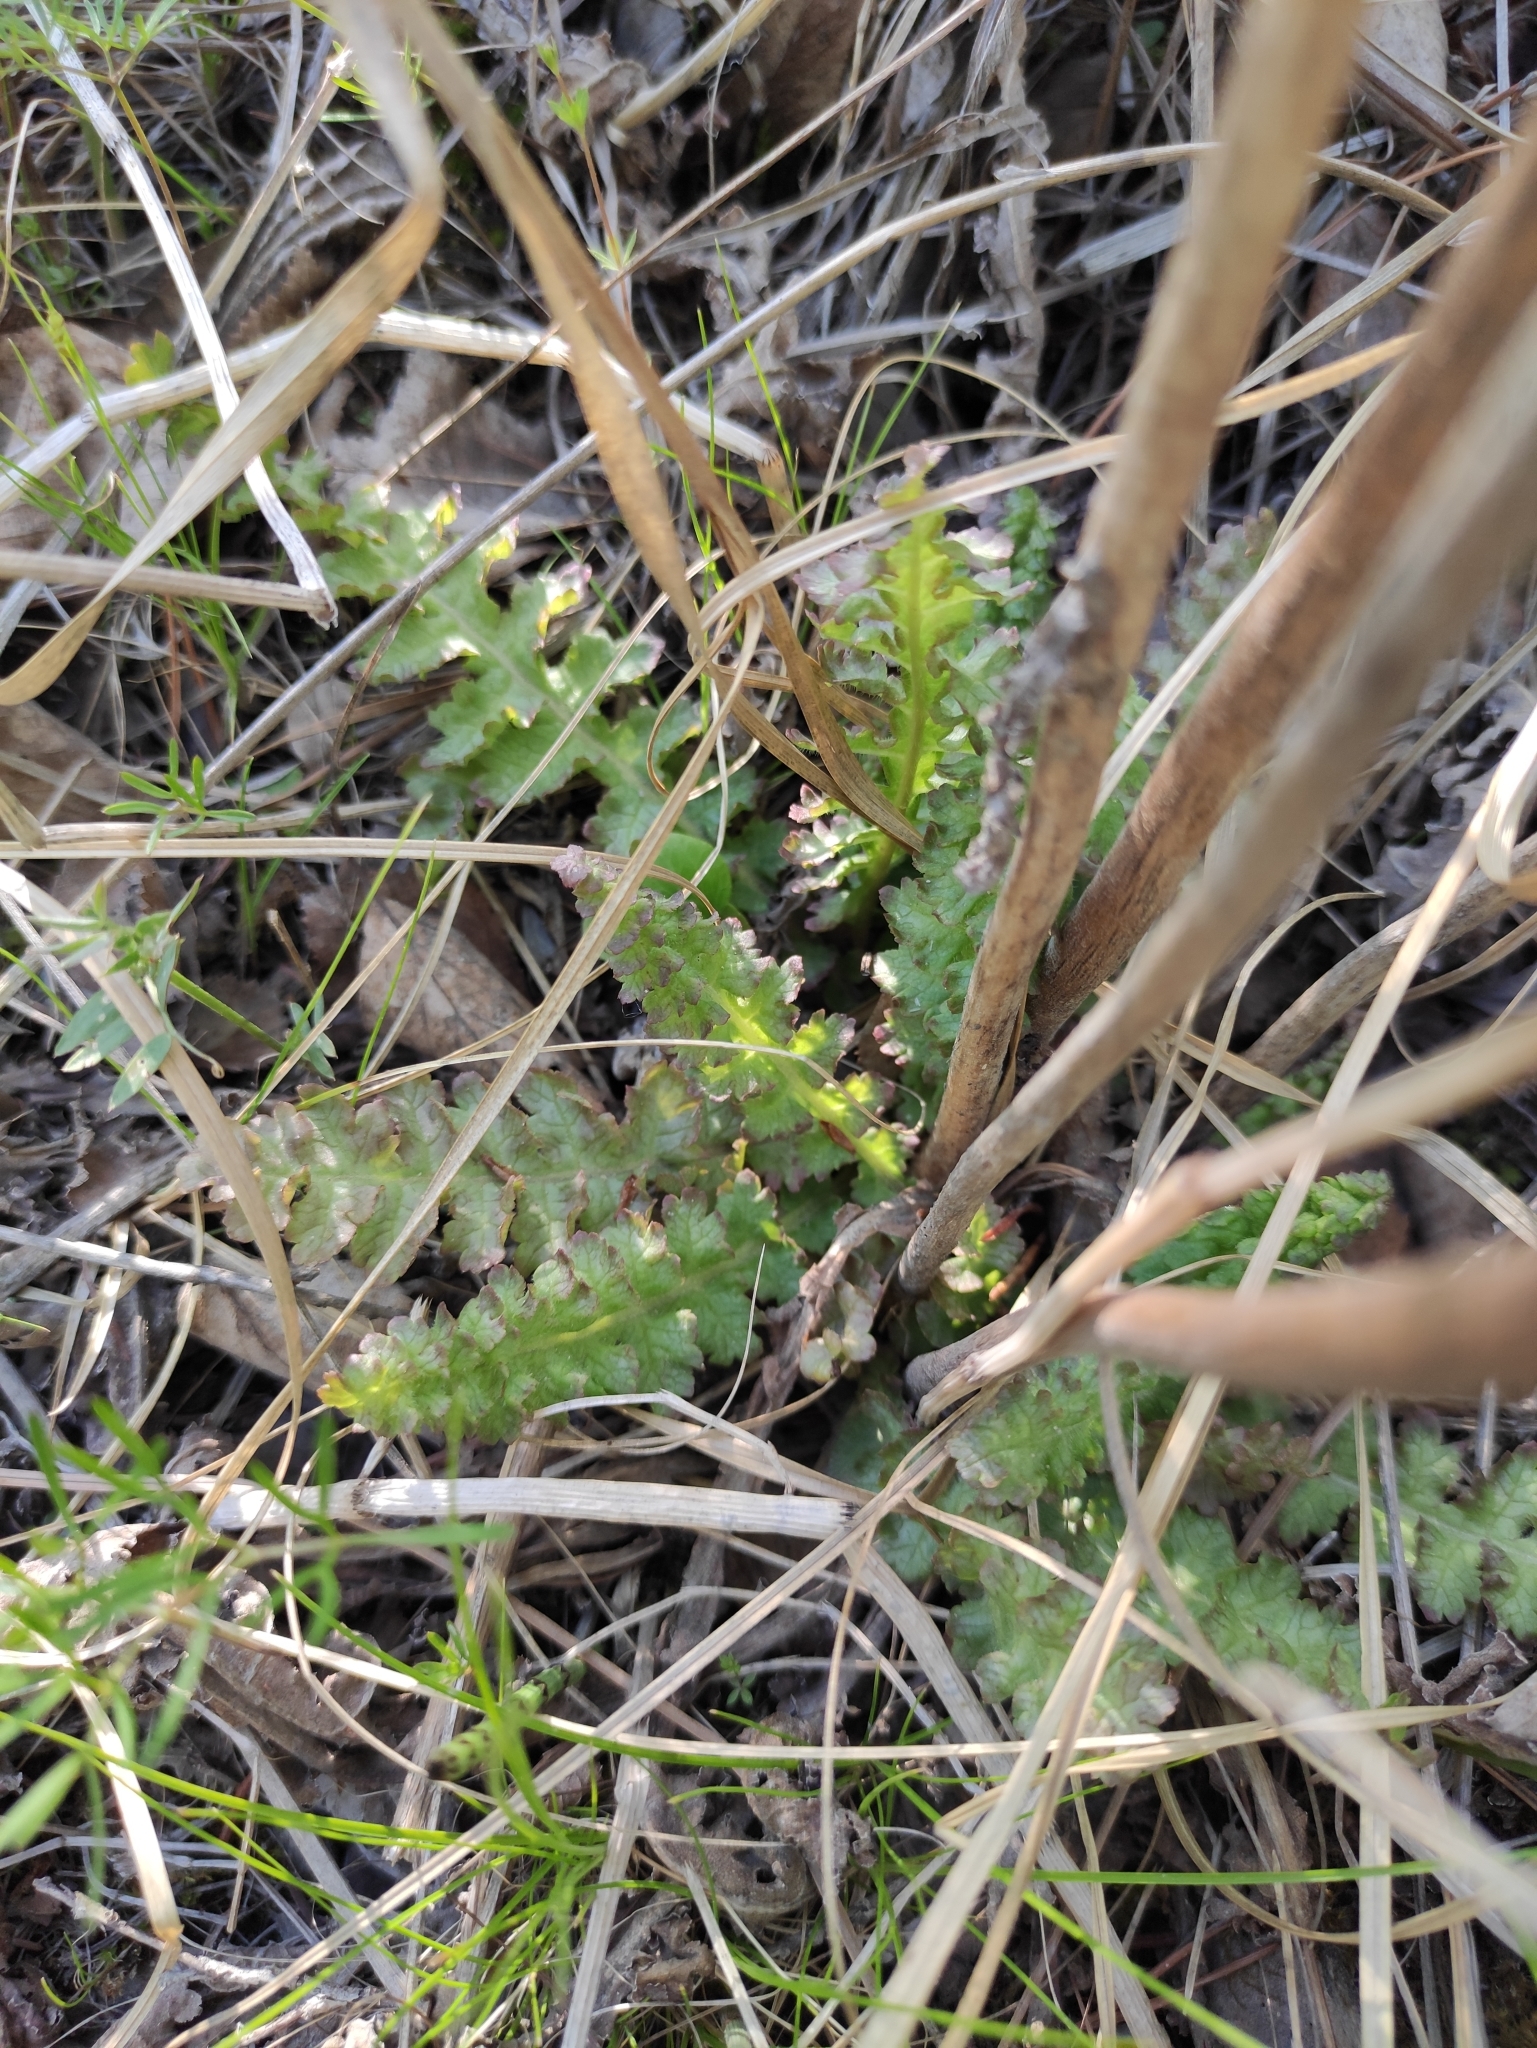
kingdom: Plantae
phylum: Tracheophyta
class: Magnoliopsida
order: Lamiales
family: Orobanchaceae
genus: Pedicularis
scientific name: Pedicularis sceptrum-carolinum
